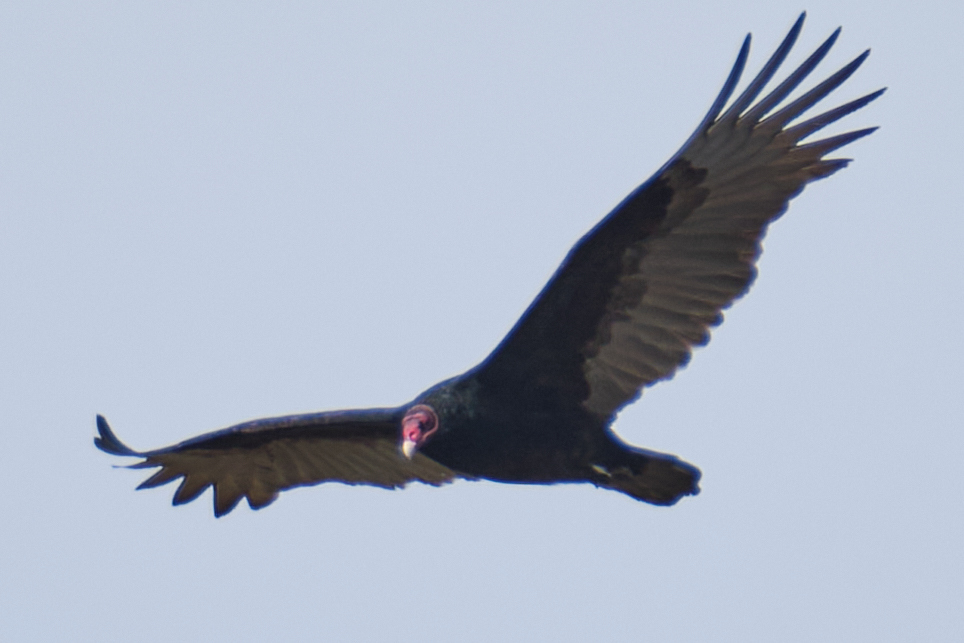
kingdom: Animalia
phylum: Chordata
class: Aves
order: Accipitriformes
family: Cathartidae
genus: Cathartes
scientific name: Cathartes aura
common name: Turkey vulture
